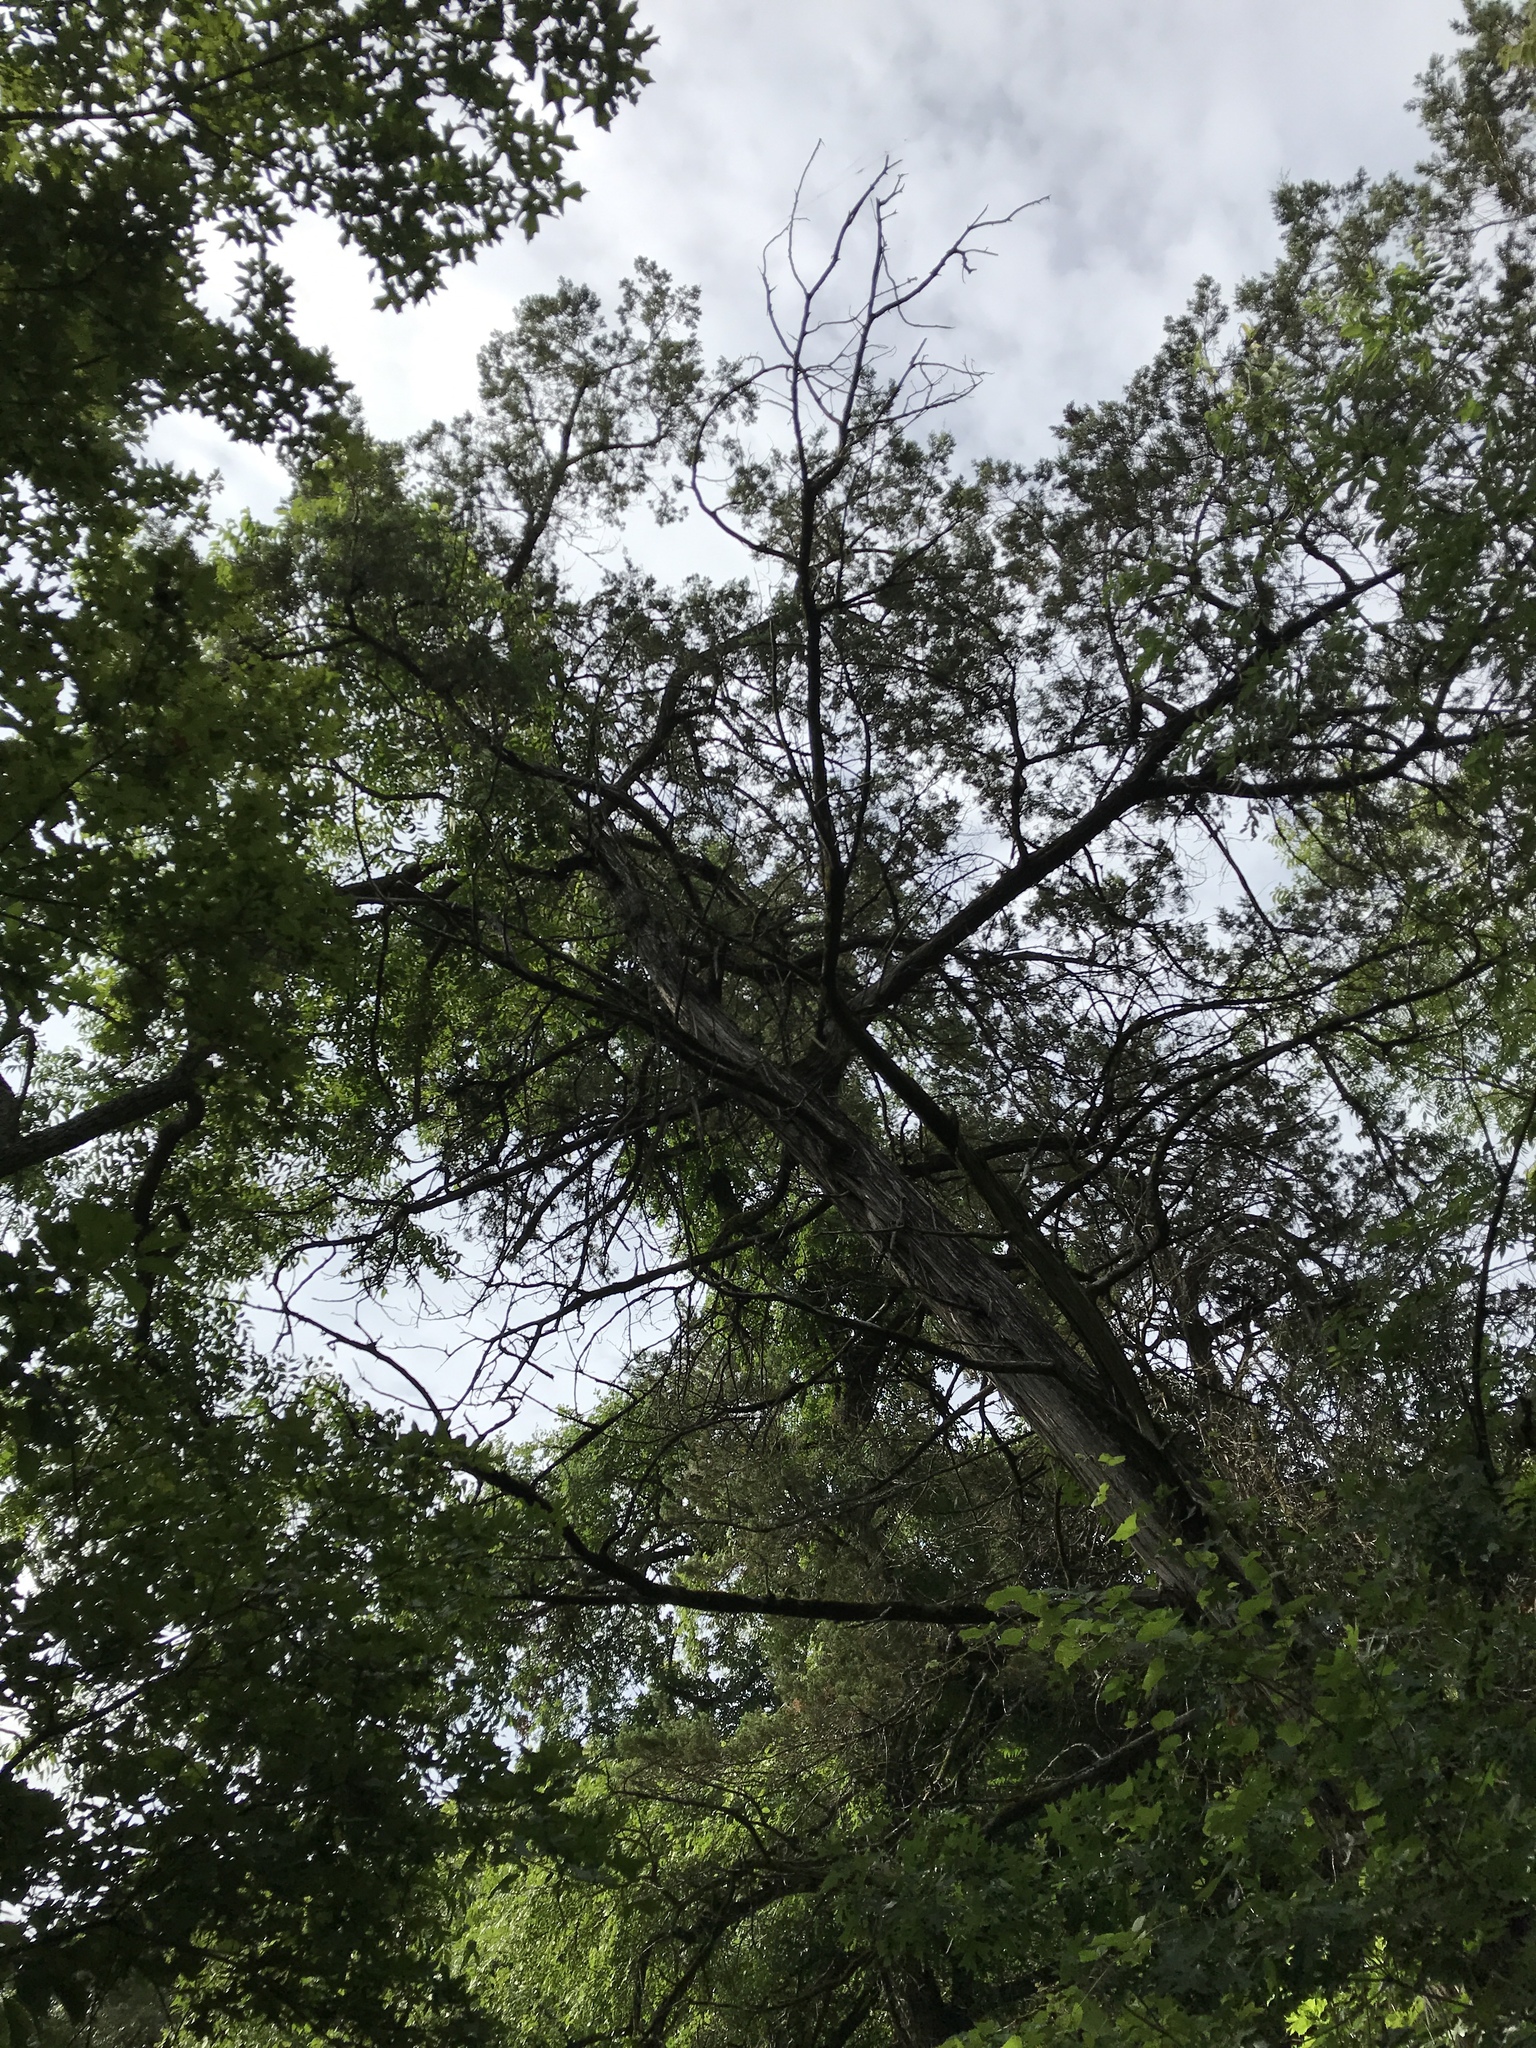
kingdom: Plantae
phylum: Tracheophyta
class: Pinopsida
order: Pinales
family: Cupressaceae
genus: Juniperus
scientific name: Juniperus ashei
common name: Mexican juniper
